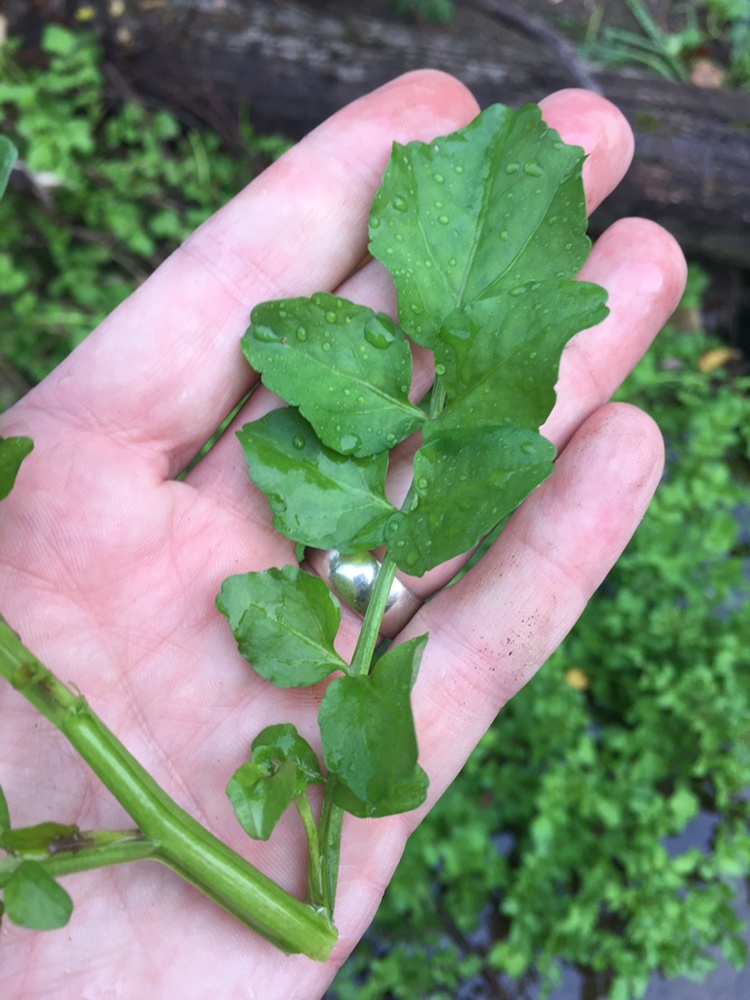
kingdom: Plantae
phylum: Tracheophyta
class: Magnoliopsida
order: Brassicales
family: Brassicaceae
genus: Nasturtium
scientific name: Nasturtium officinale
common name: Watercress
